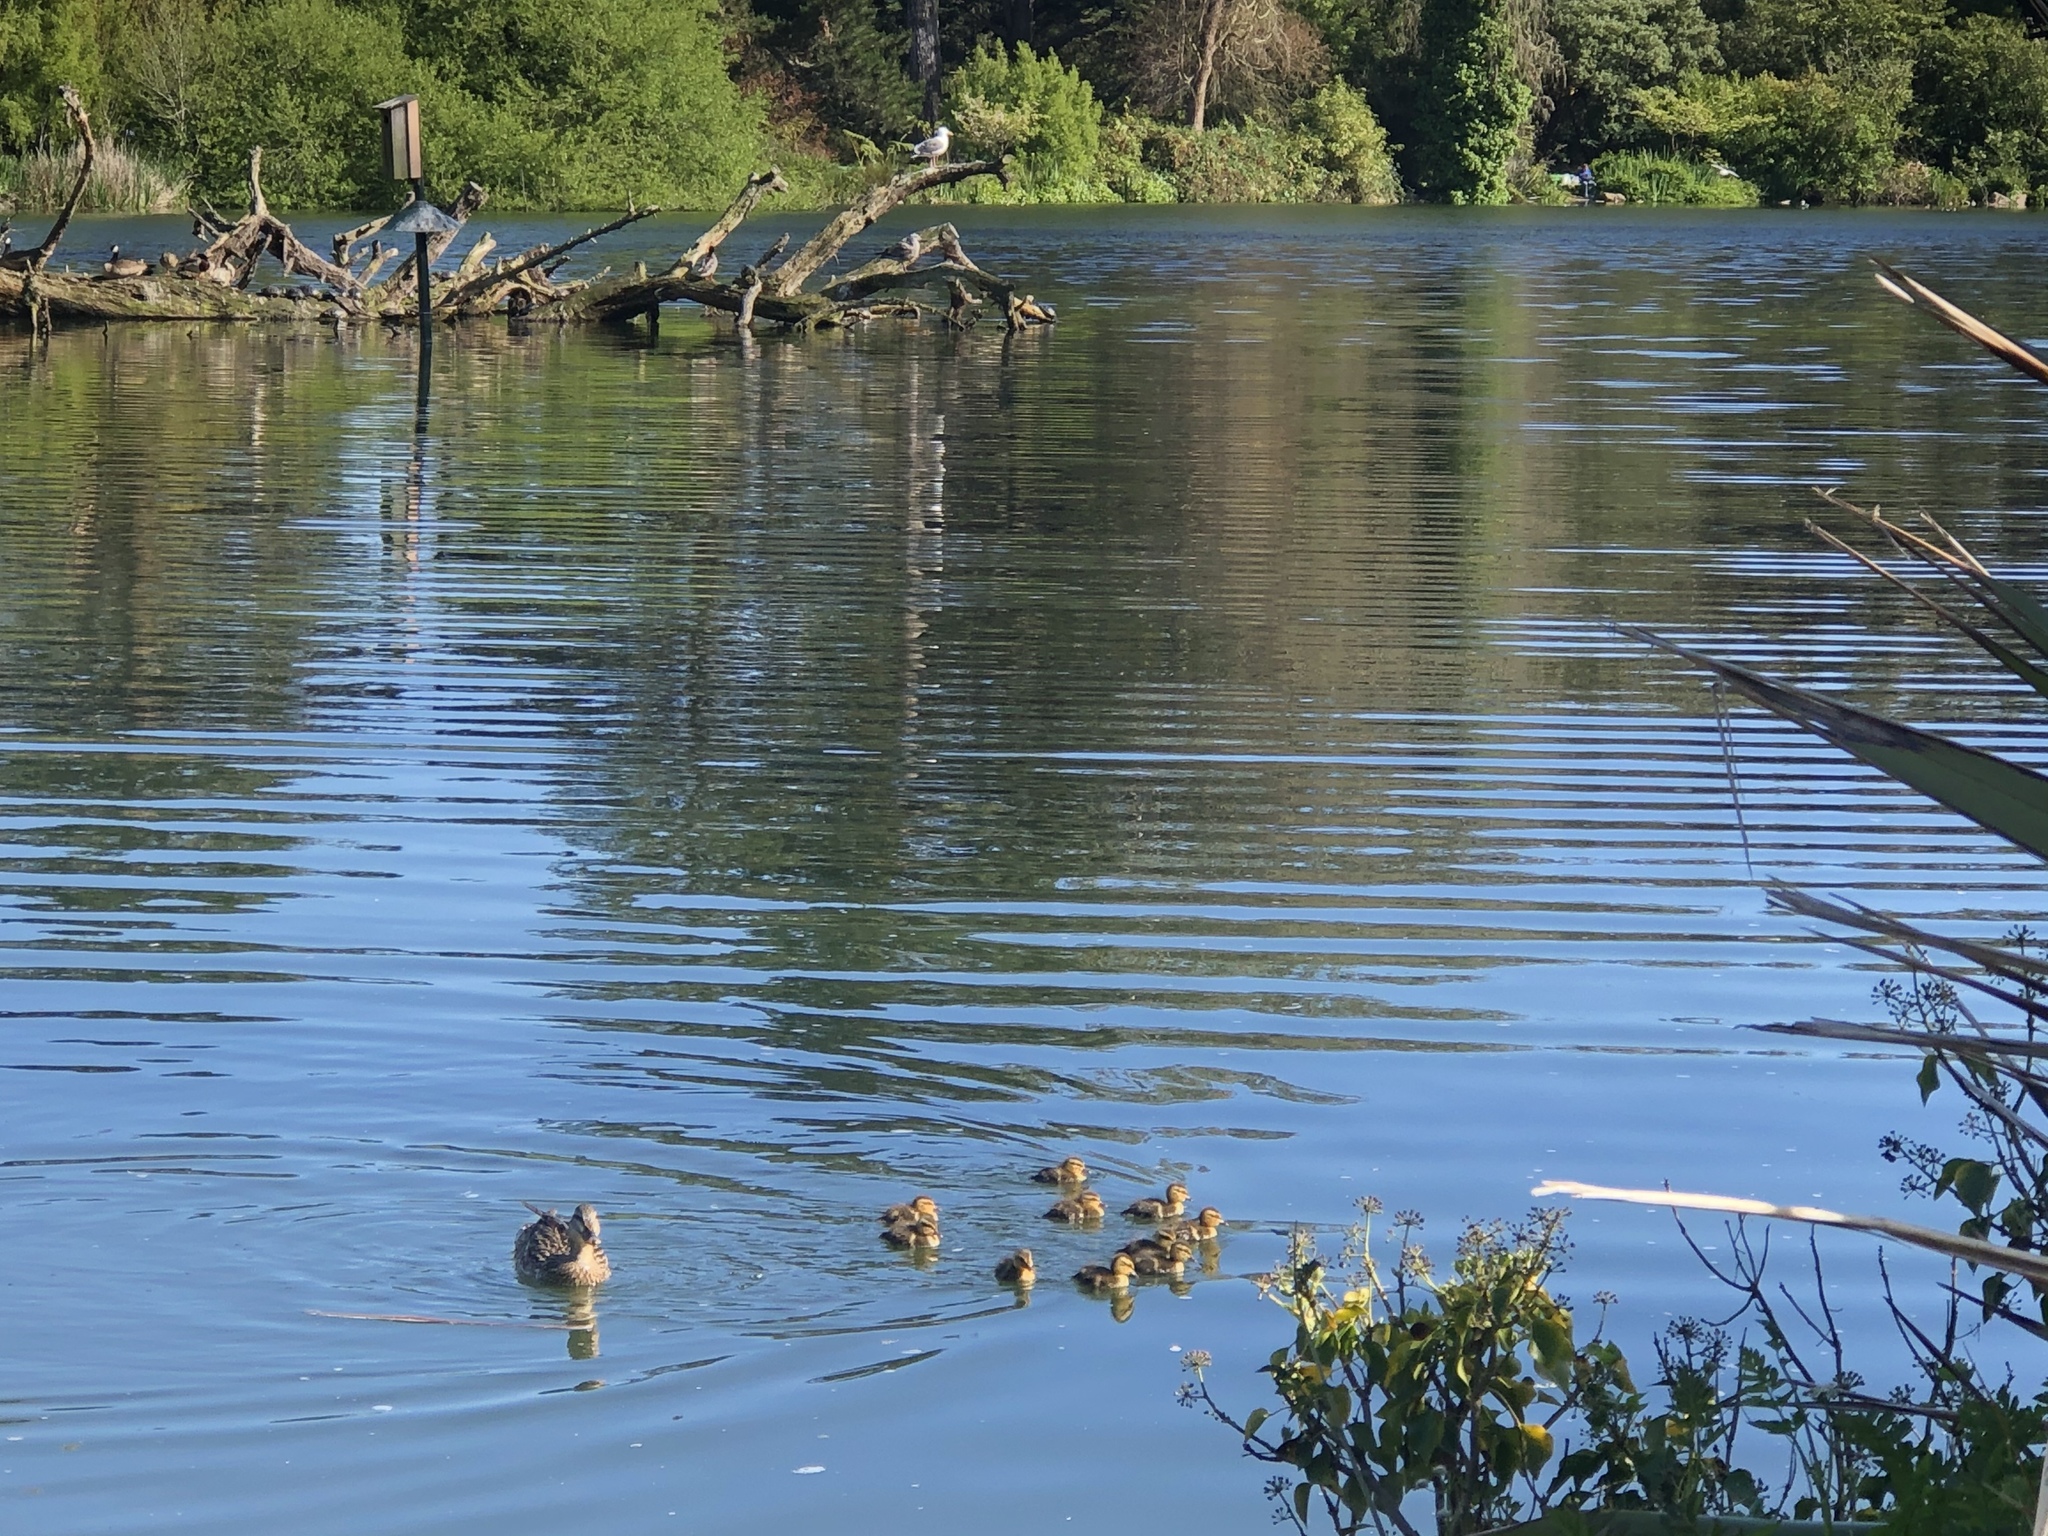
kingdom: Animalia
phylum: Chordata
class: Aves
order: Anseriformes
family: Anatidae
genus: Anas
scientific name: Anas platyrhynchos
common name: Mallard
